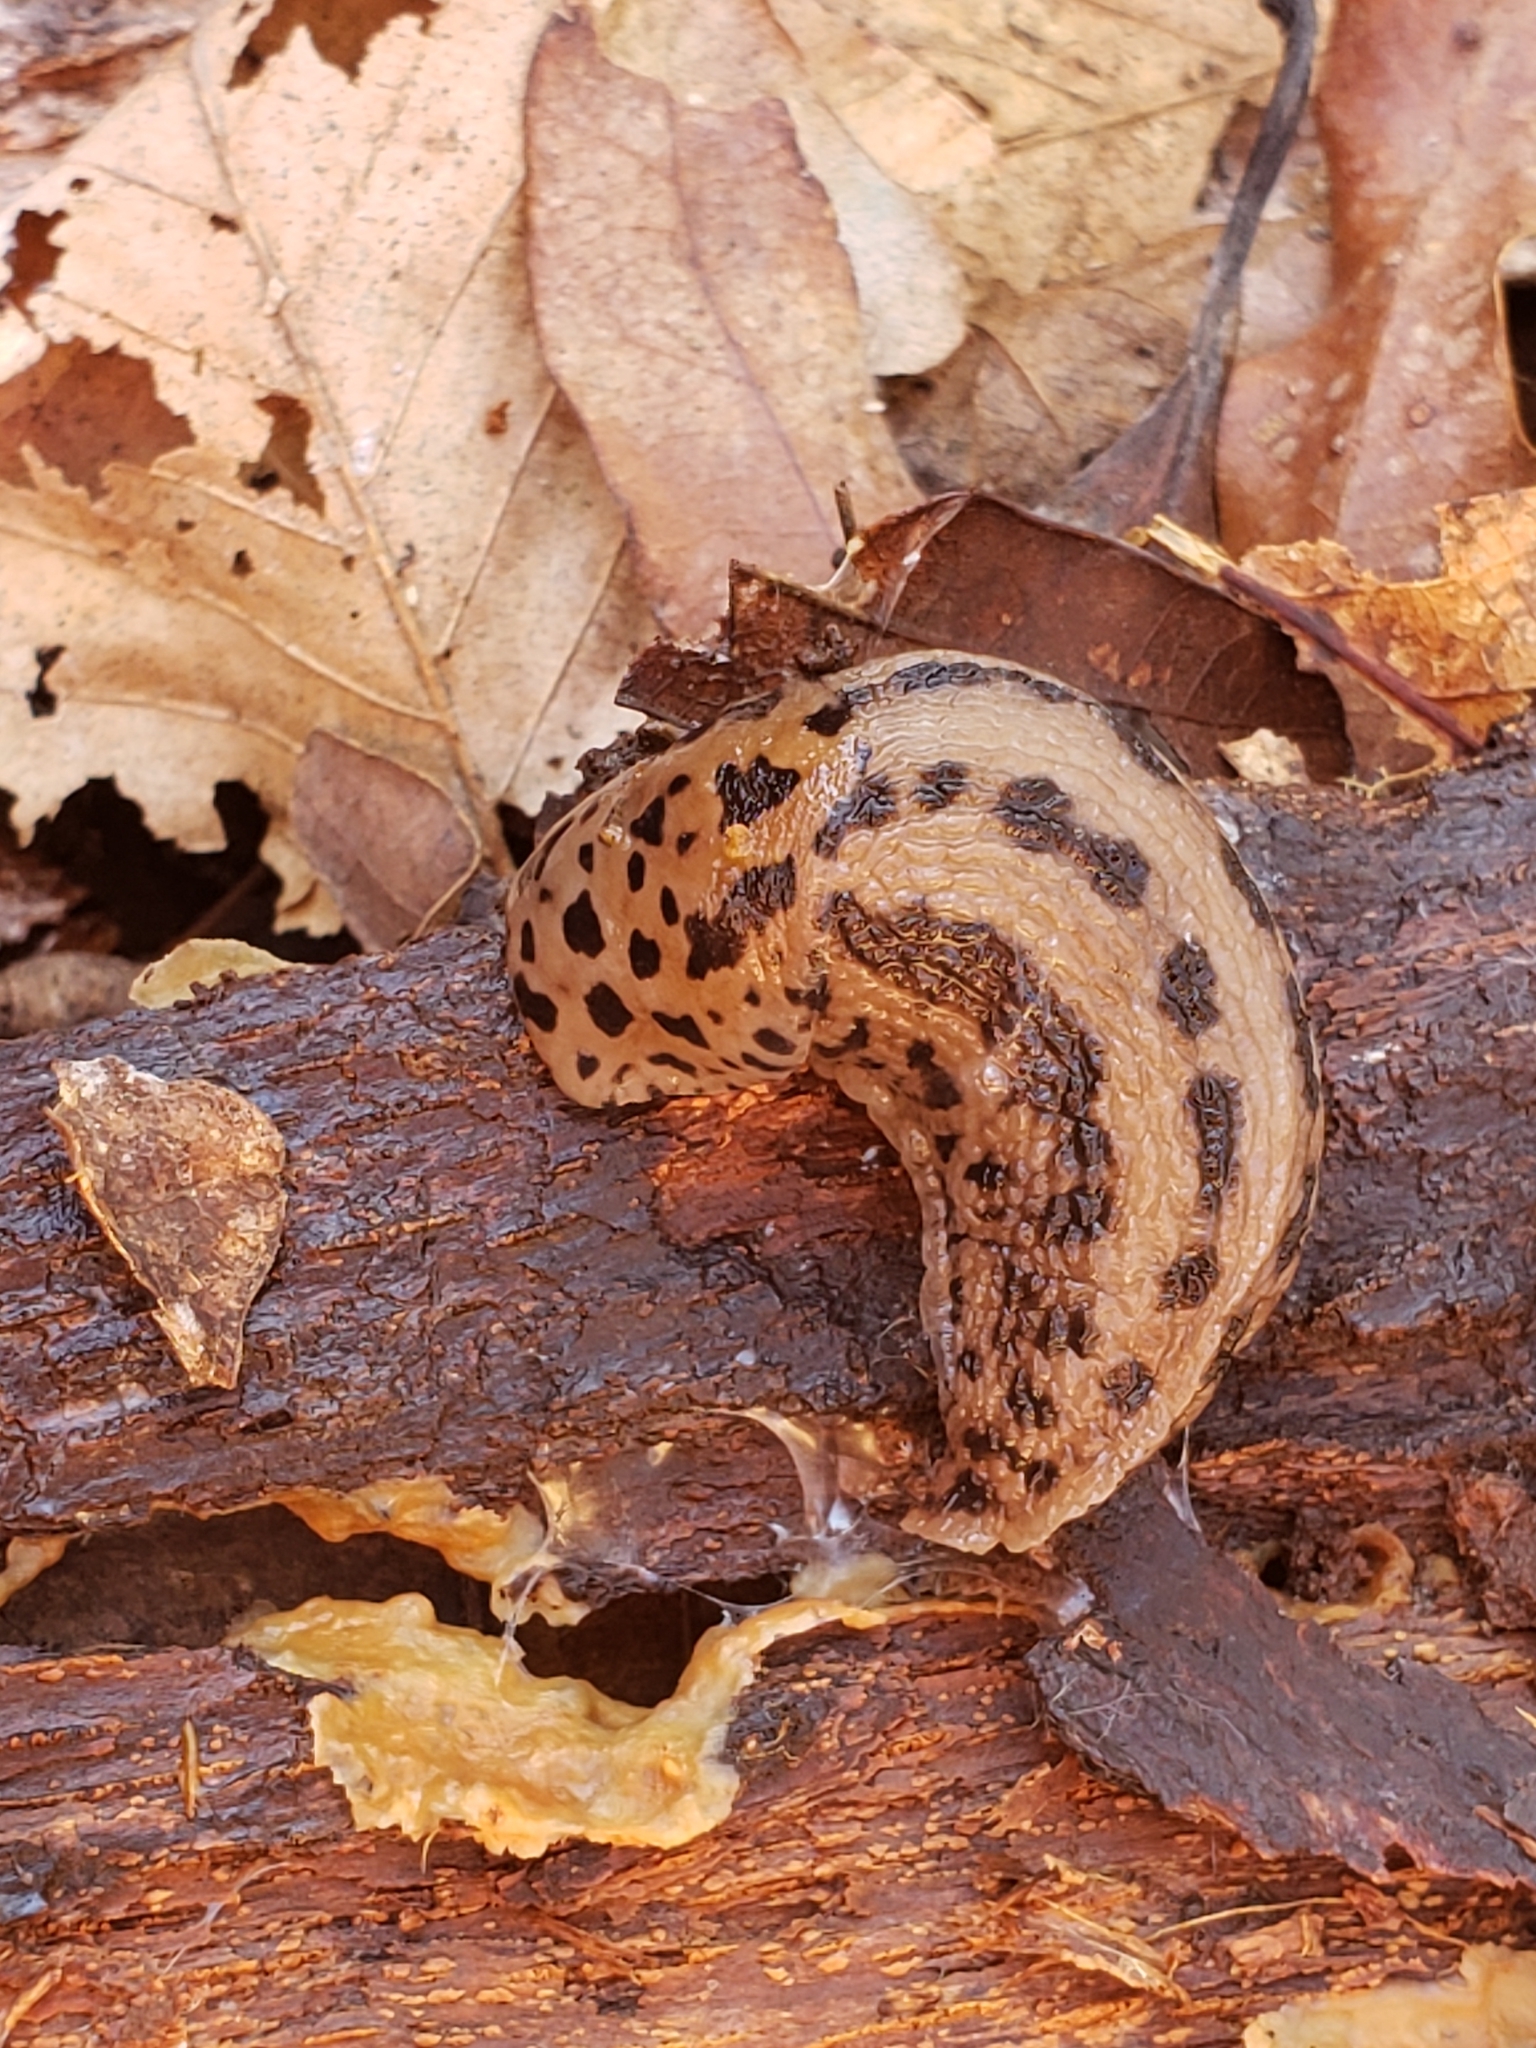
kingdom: Animalia
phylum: Mollusca
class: Gastropoda
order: Stylommatophora
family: Limacidae
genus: Limax
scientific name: Limax maximus
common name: Great grey slug
